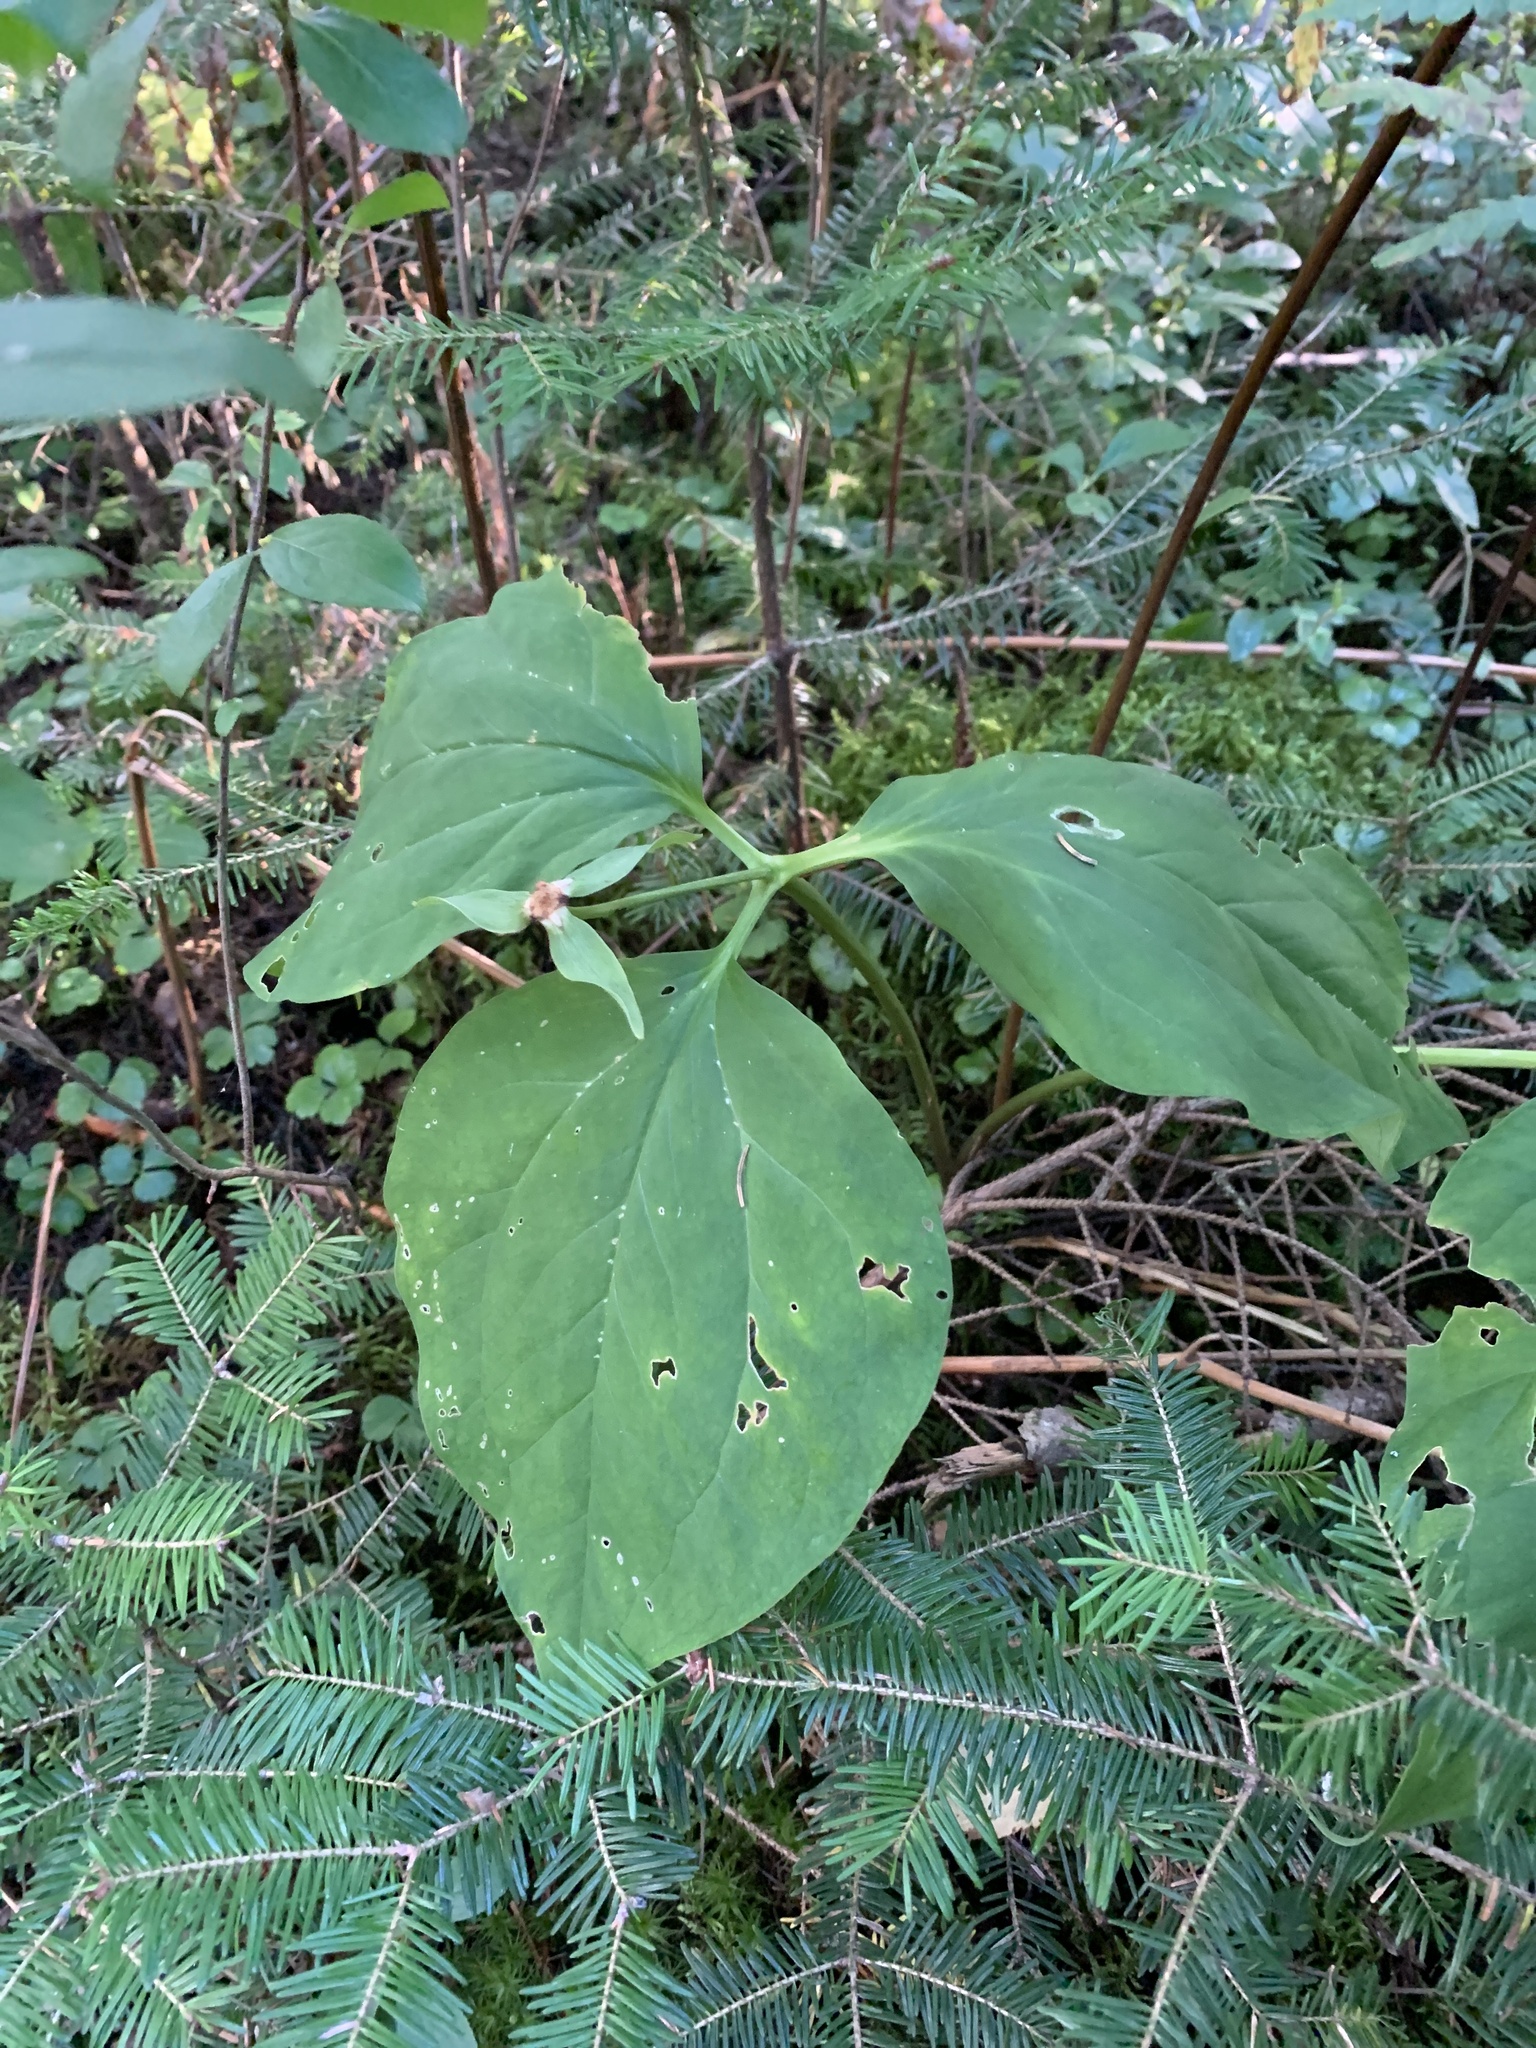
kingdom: Plantae
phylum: Tracheophyta
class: Liliopsida
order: Liliales
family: Melanthiaceae
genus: Trillium
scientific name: Trillium undulatum
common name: Paint trillium
